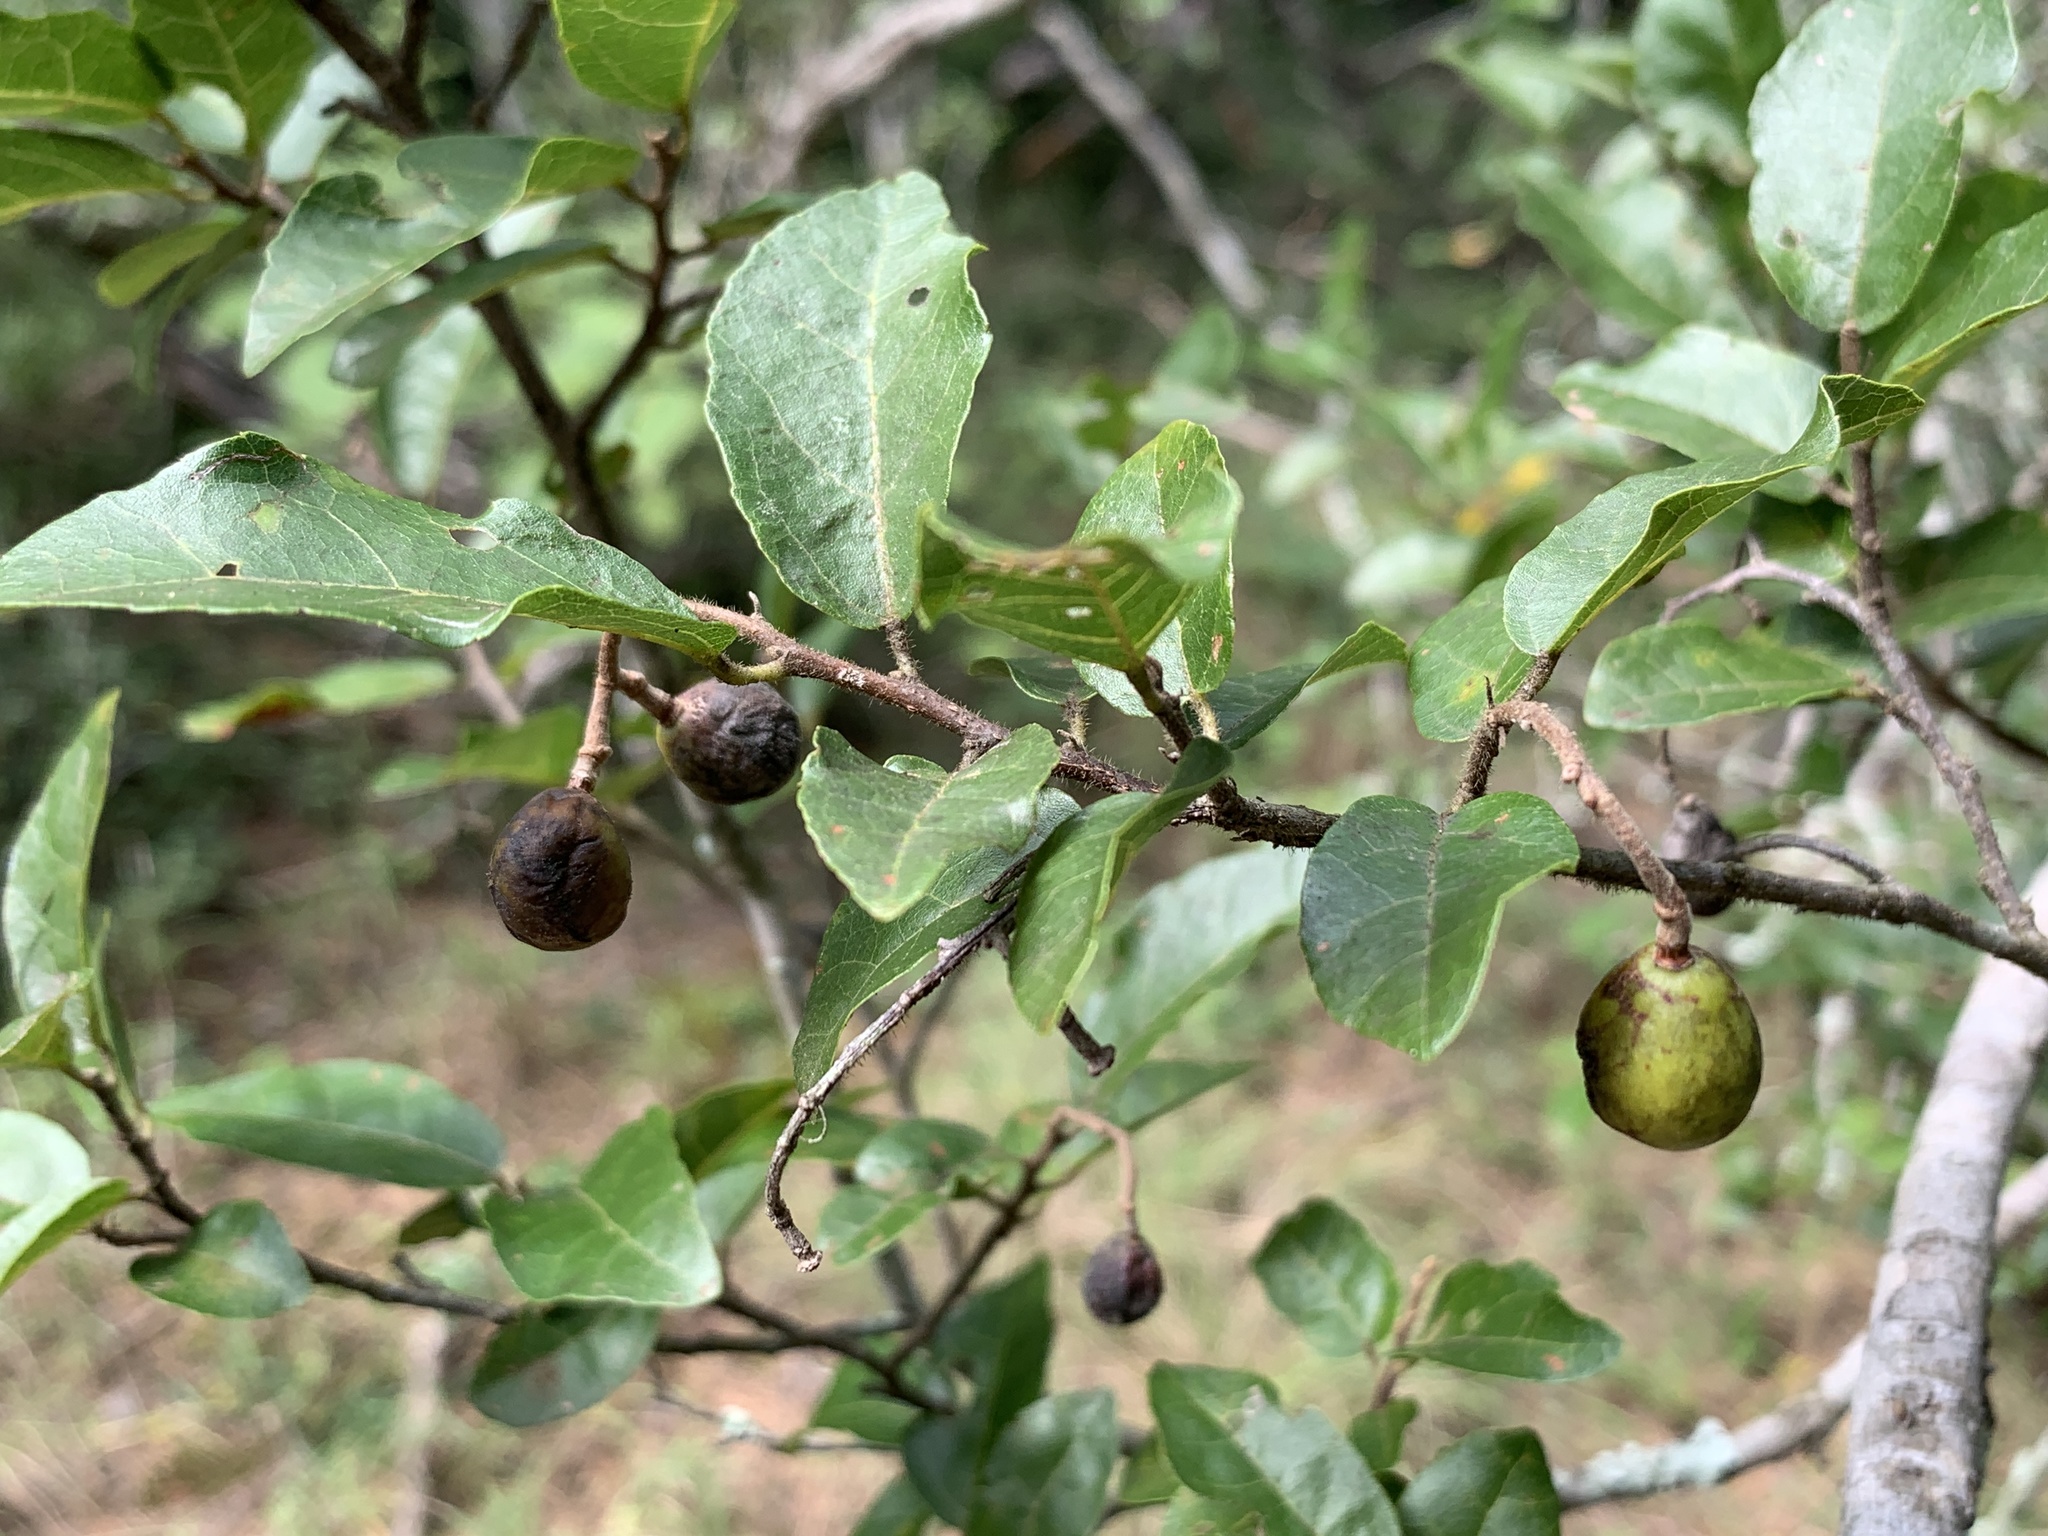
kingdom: Plantae
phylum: Tracheophyta
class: Magnoliopsida
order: Malvales
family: Malvaceae
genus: Grewia
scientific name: Grewia flava
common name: Brandy bush
